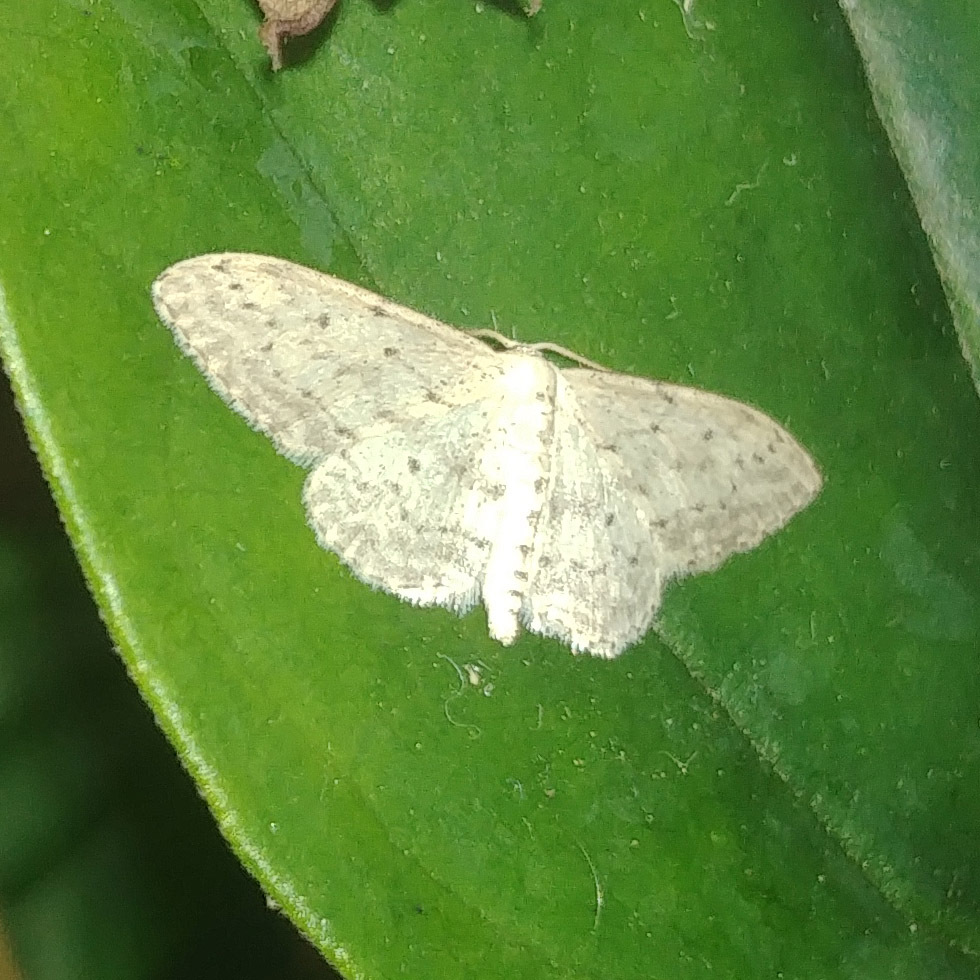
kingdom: Animalia
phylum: Arthropoda
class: Insecta
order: Lepidoptera
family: Geometridae
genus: Idaea
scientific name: Idaea seriata
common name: Small dusty wave
